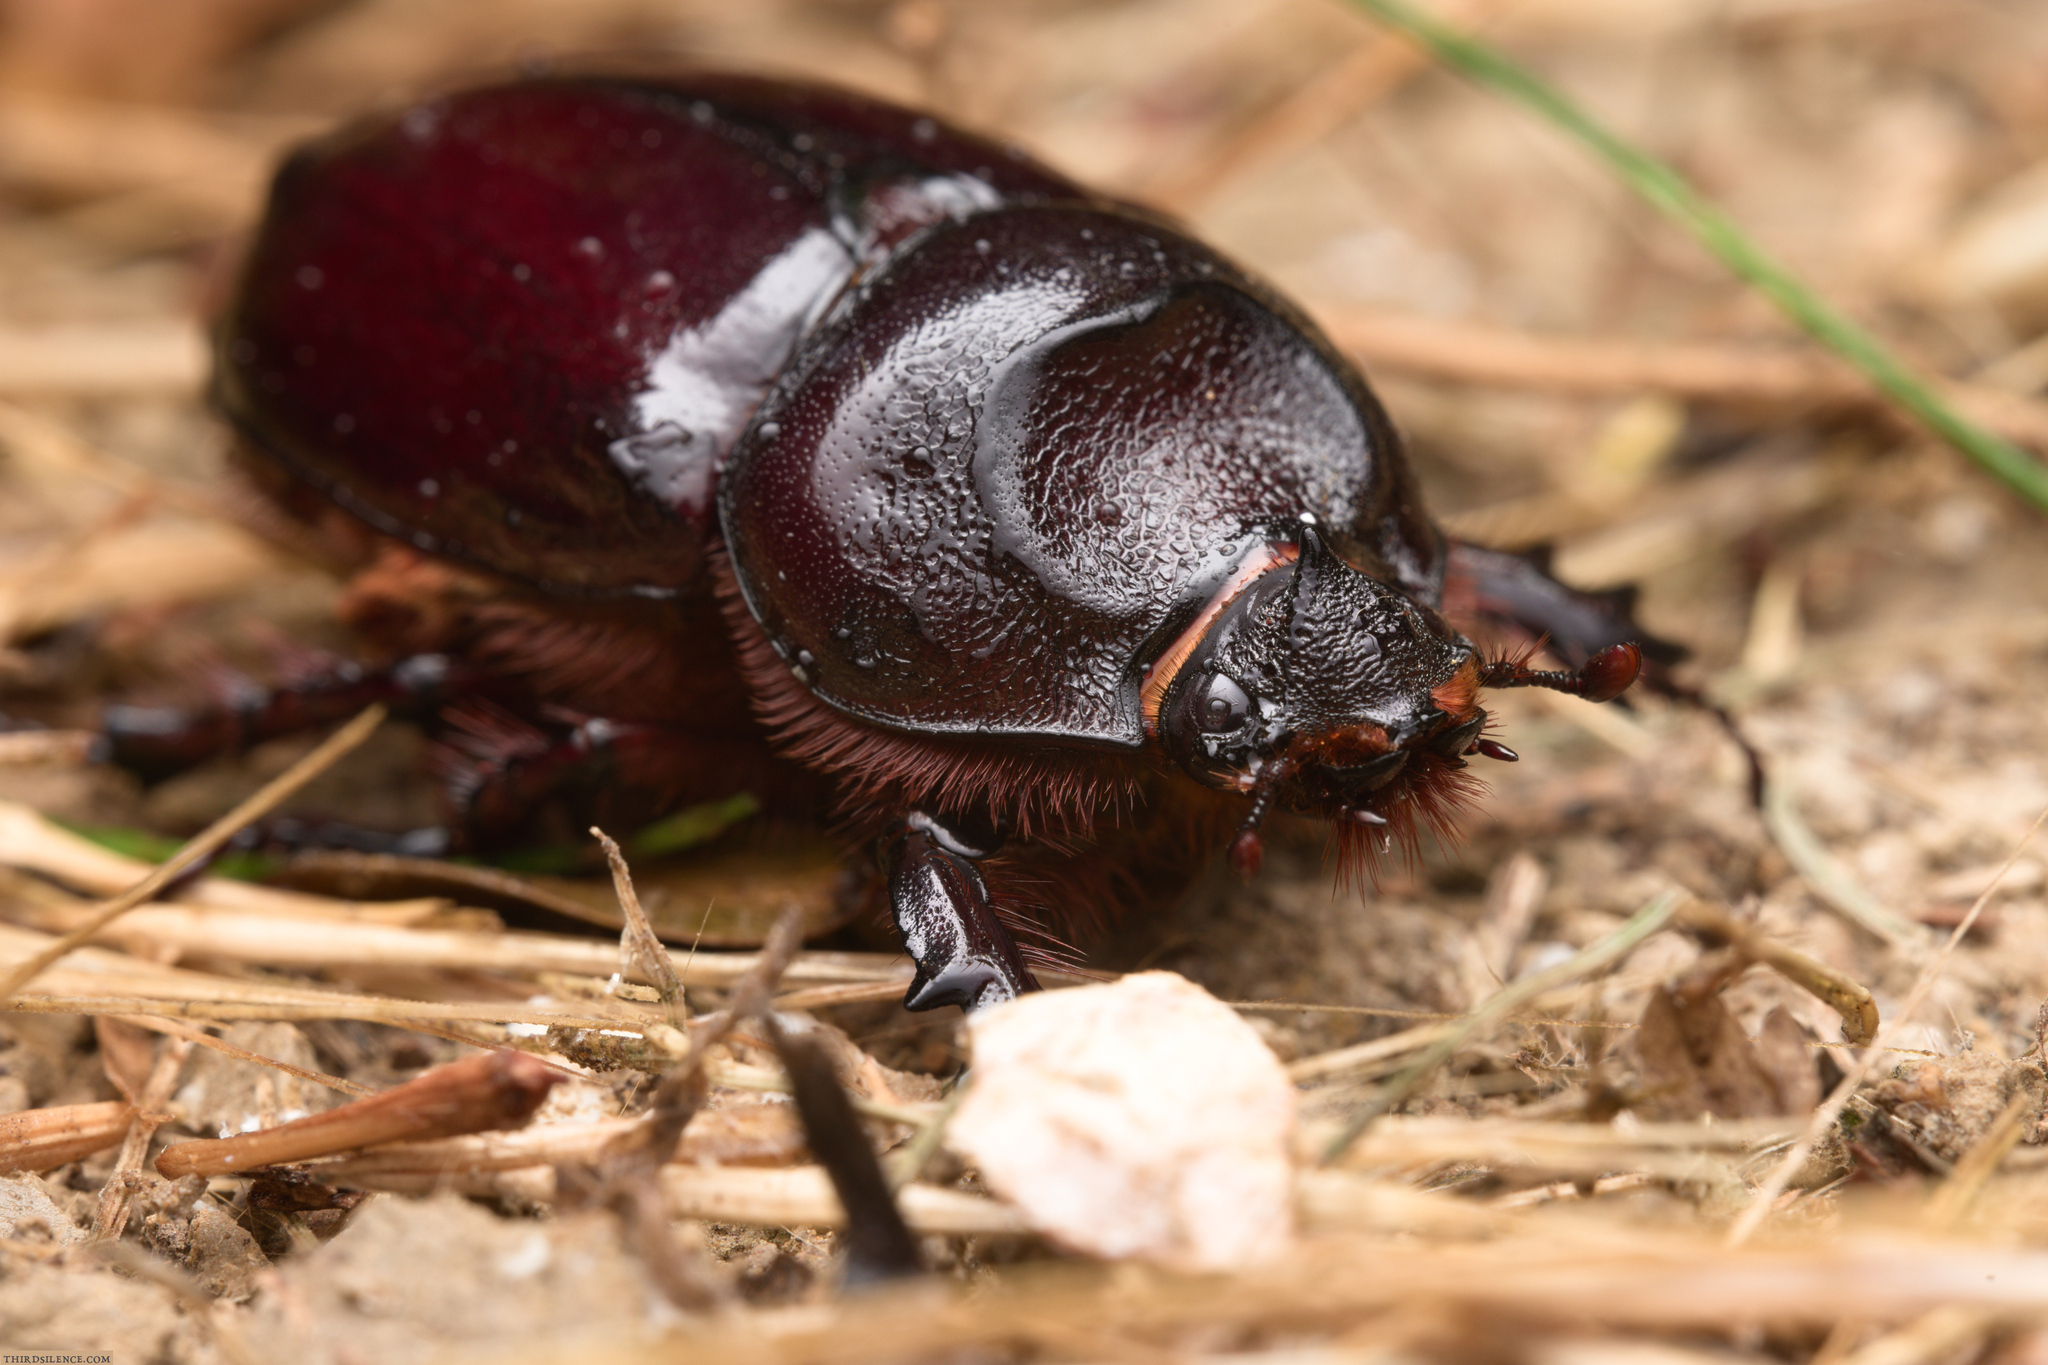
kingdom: Animalia
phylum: Arthropoda
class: Insecta
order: Coleoptera
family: Scarabaeidae
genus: Oryctes
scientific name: Oryctes nasicornis
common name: European rhinoceros beetle
